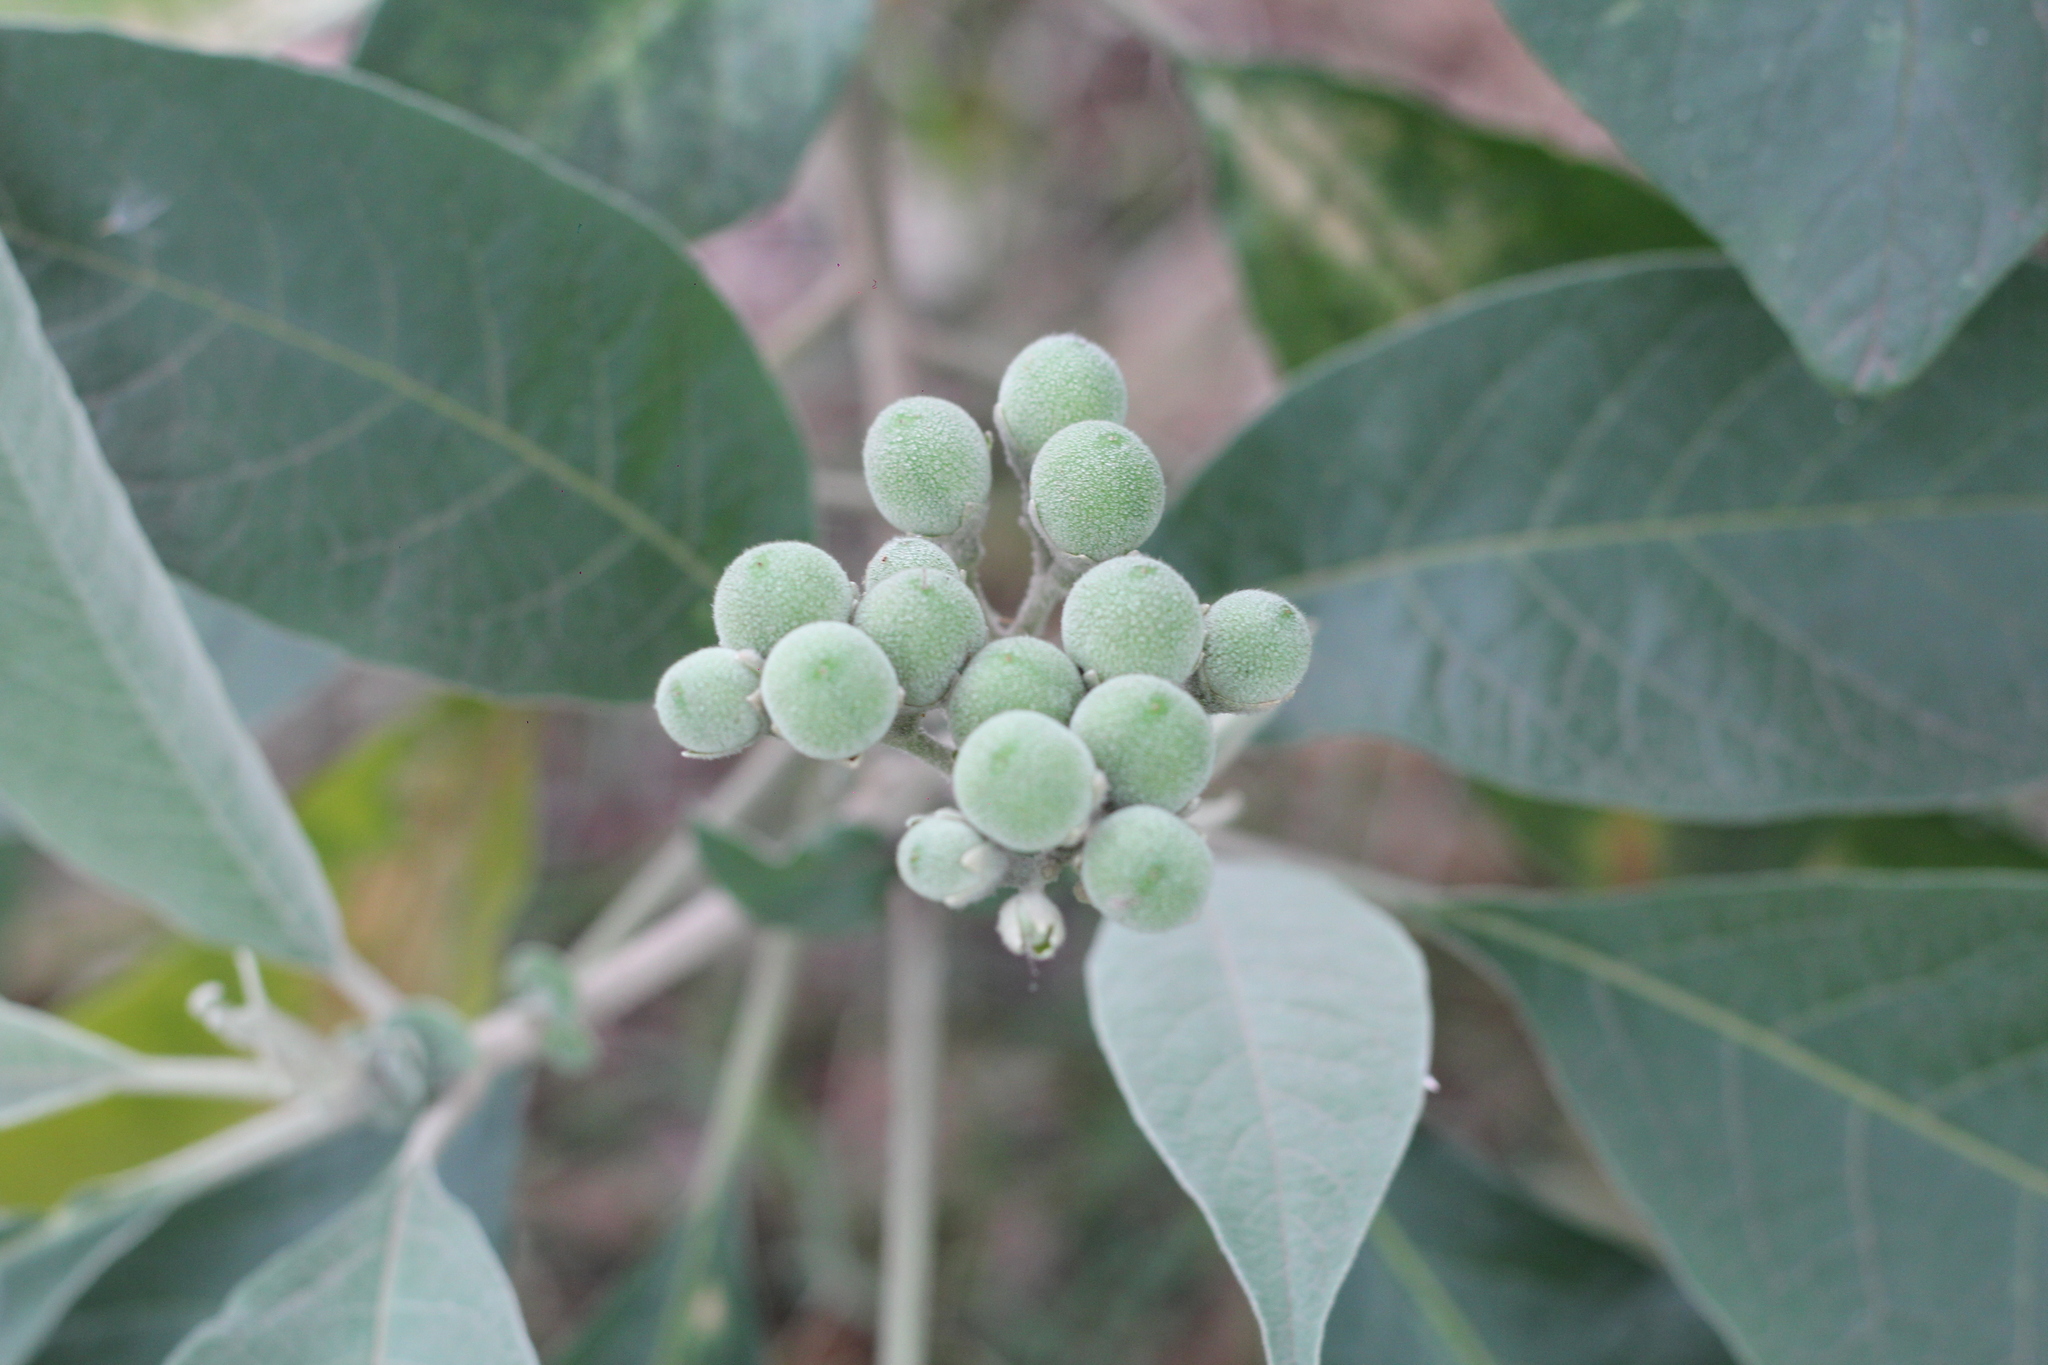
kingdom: Plantae
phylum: Tracheophyta
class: Magnoliopsida
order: Solanales
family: Solanaceae
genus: Solanum
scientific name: Solanum granulosoleprosum
